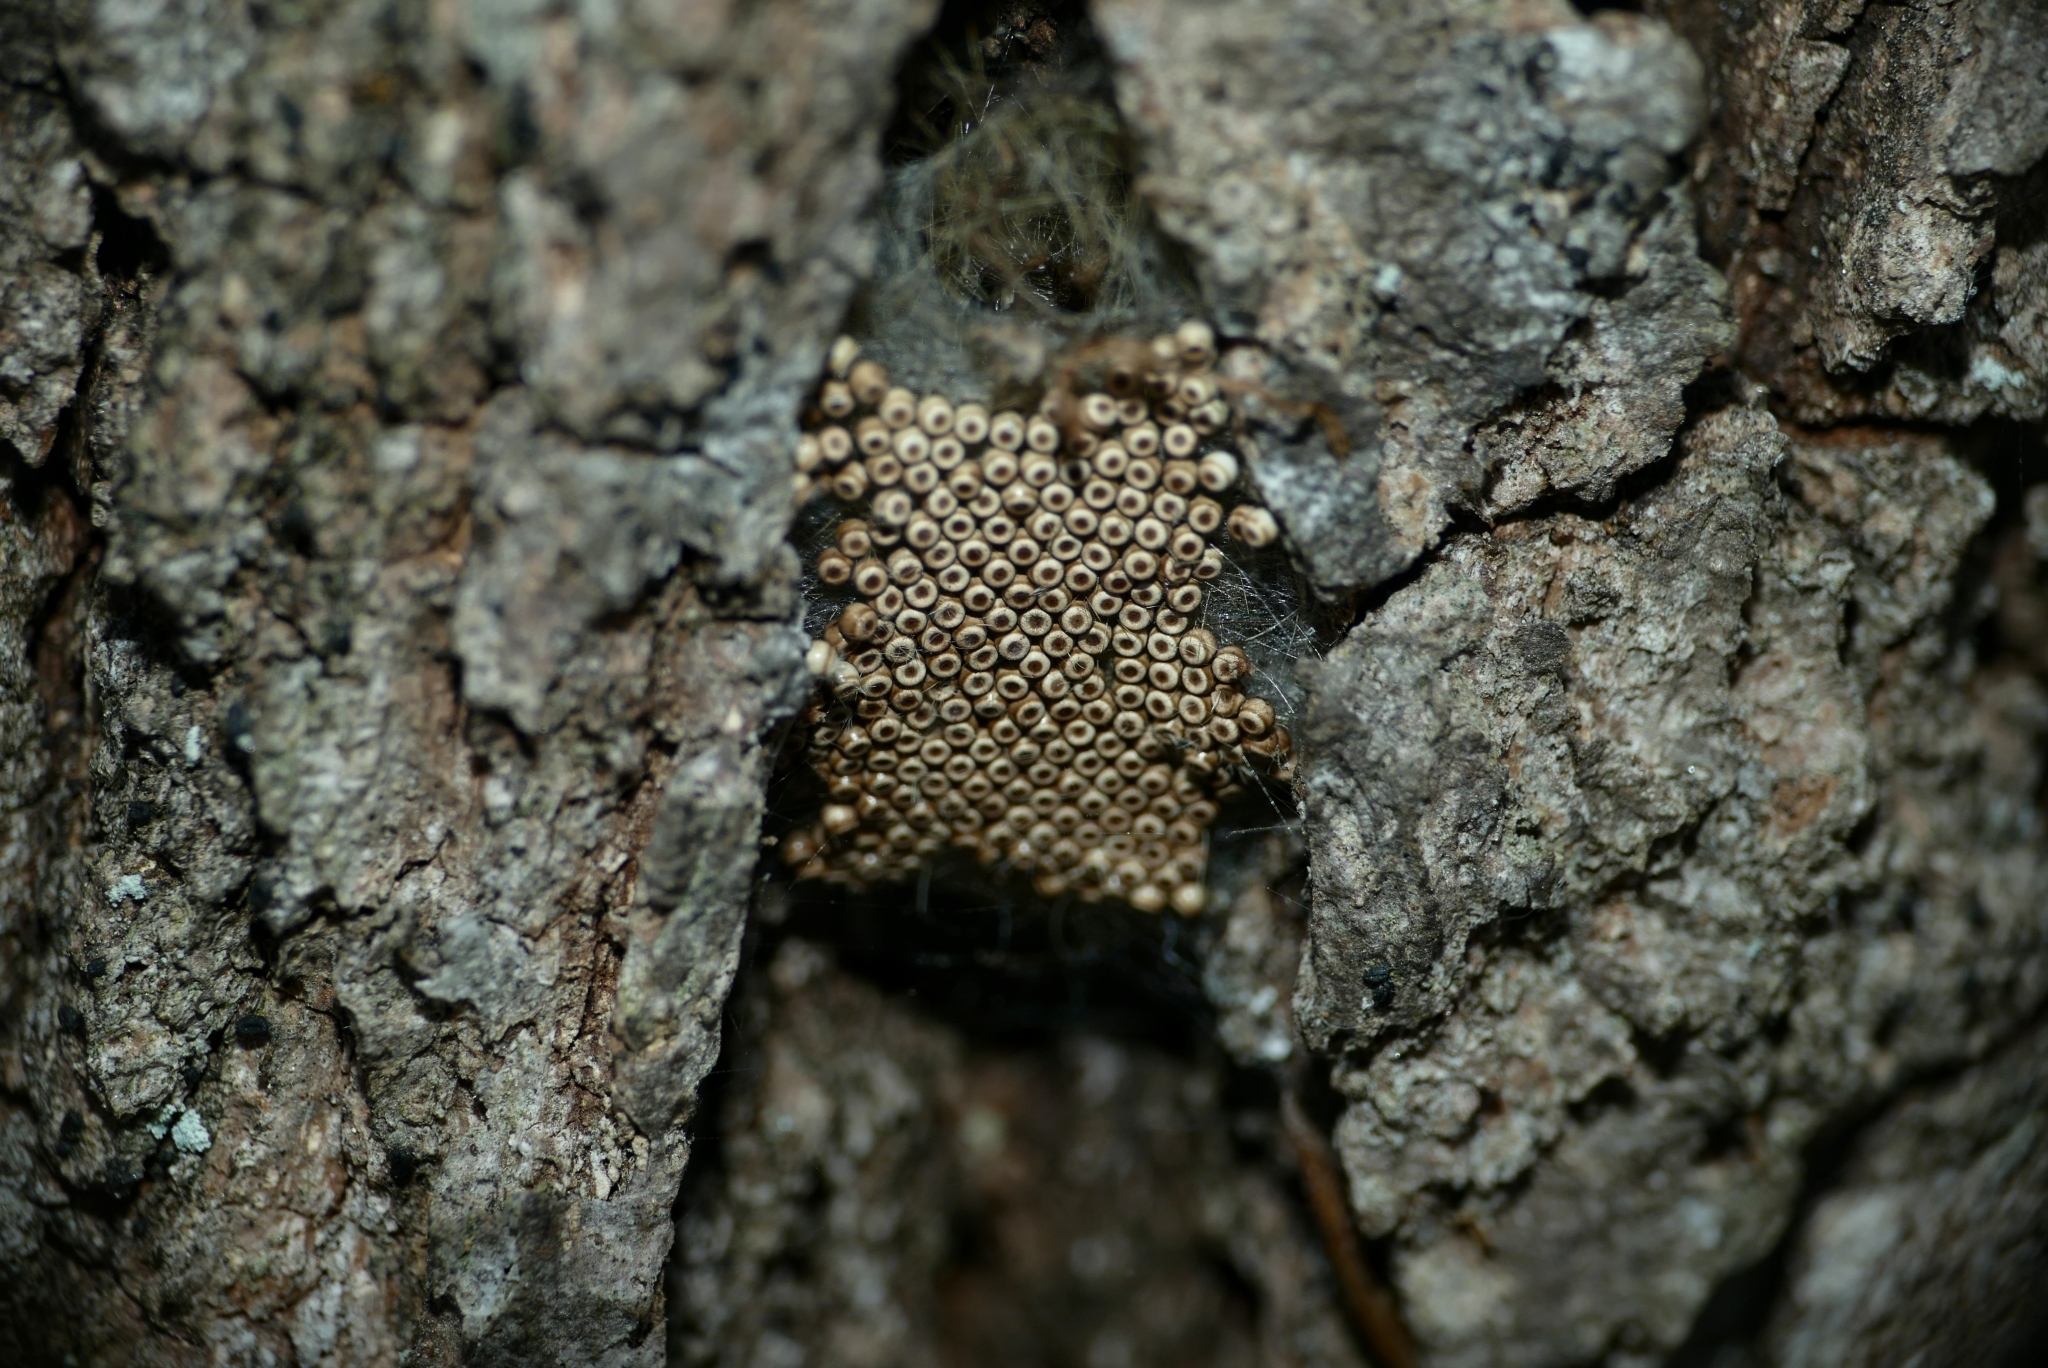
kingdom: Animalia
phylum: Arthropoda
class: Insecta
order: Lepidoptera
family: Erebidae
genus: Orgyia
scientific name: Orgyia antiqua
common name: Vapourer
